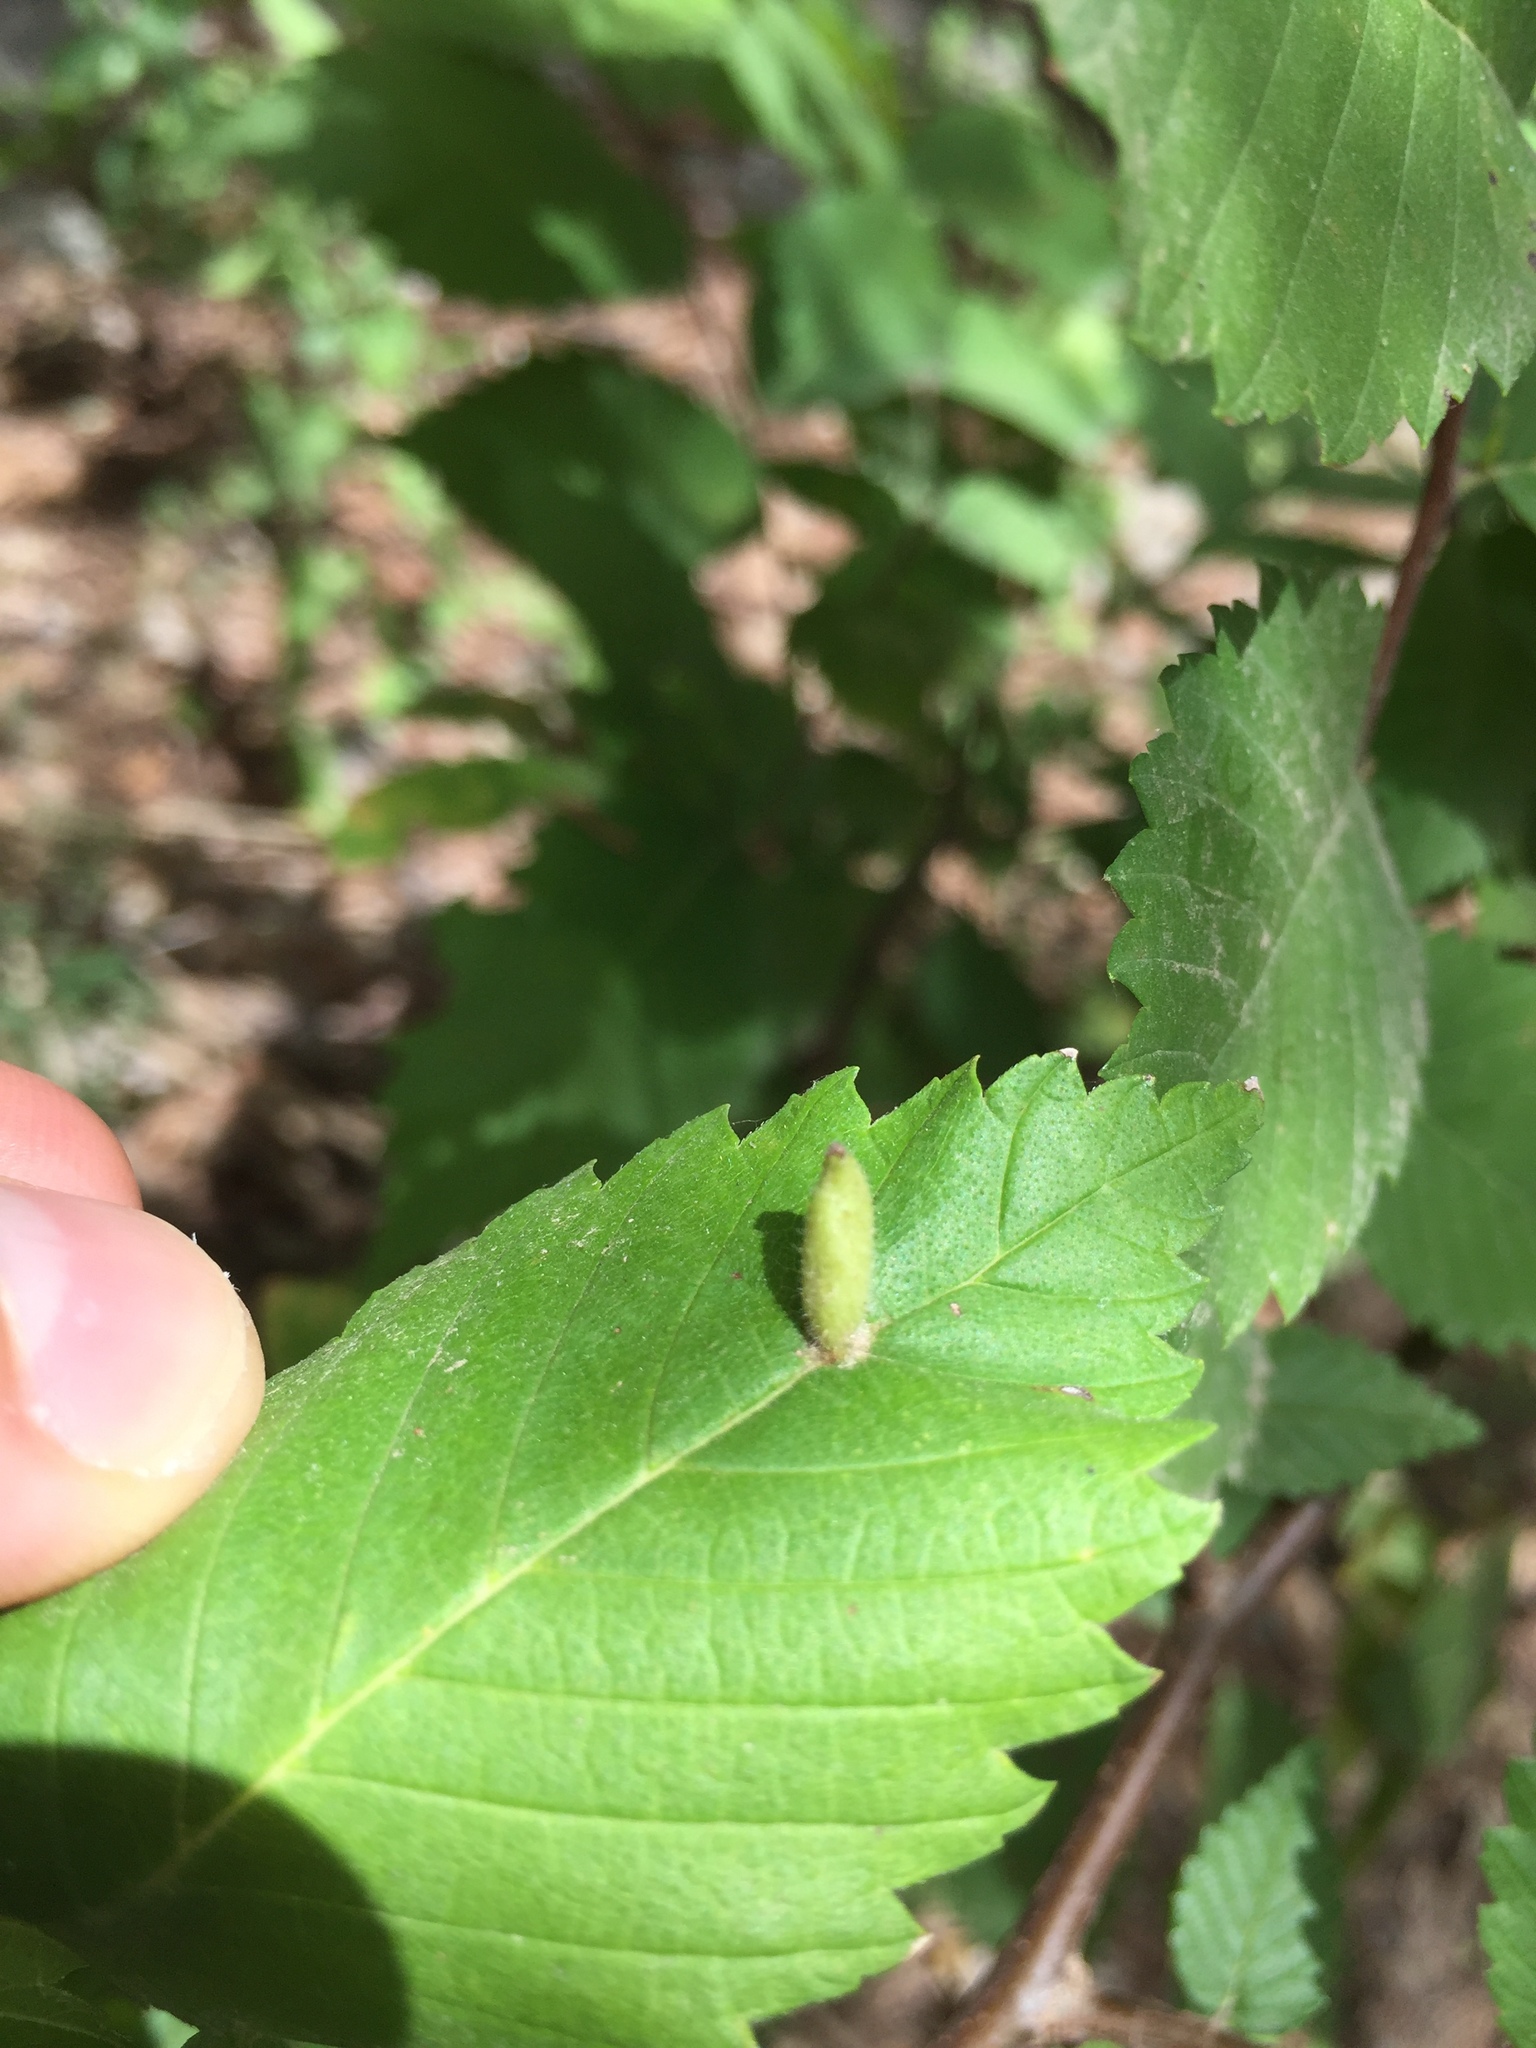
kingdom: Animalia
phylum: Arthropoda
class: Arachnida
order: Trombidiformes
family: Eriophyidae
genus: Aceria
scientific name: Aceria
